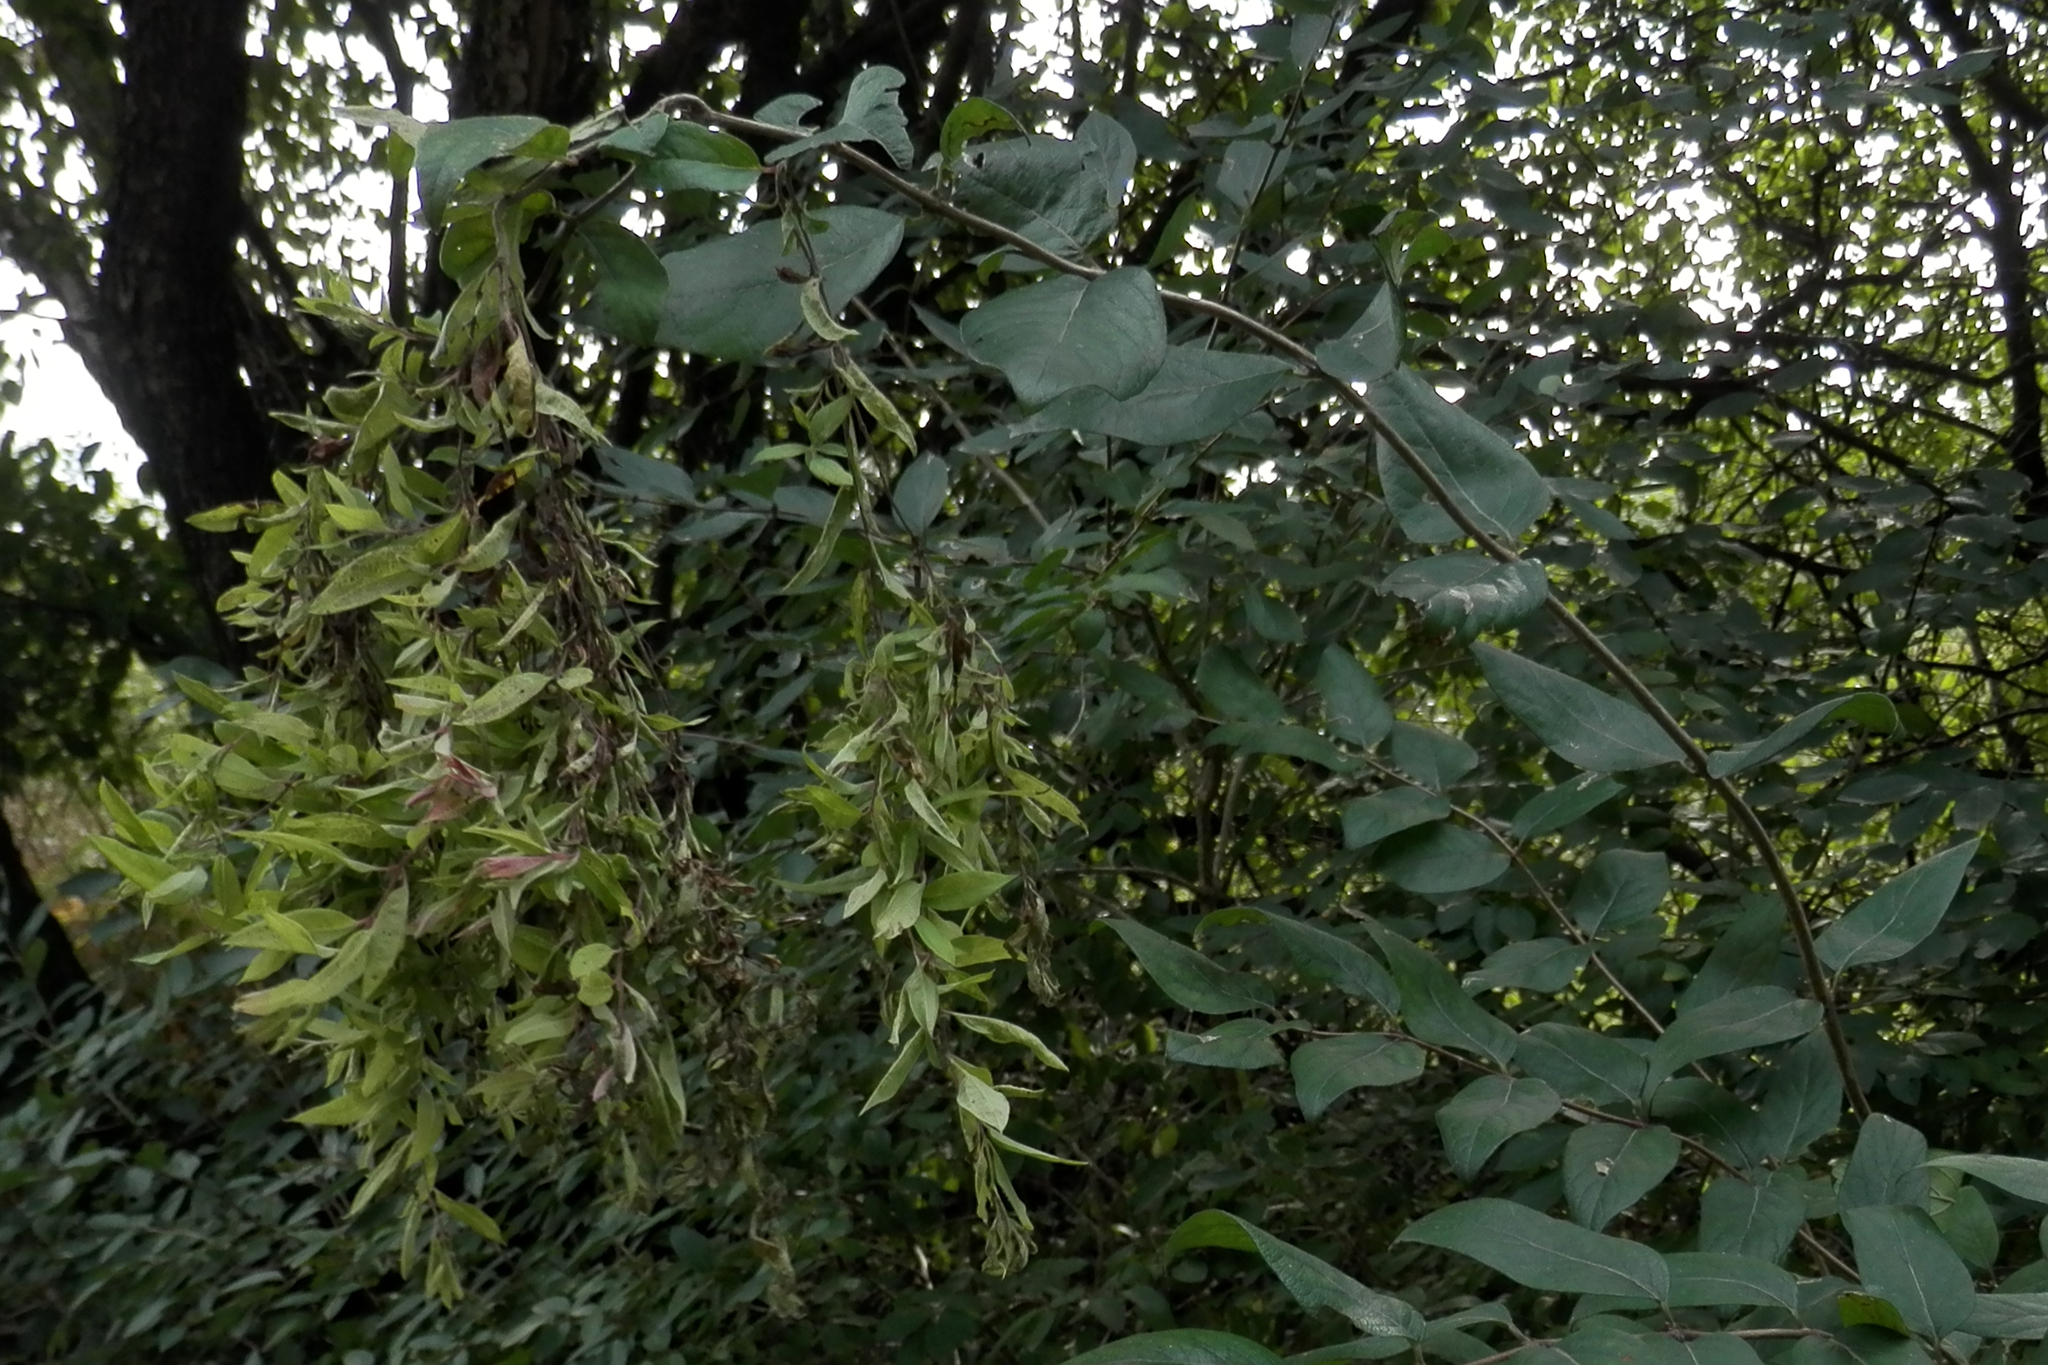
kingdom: Plantae
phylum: Tracheophyta
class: Magnoliopsida
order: Dipsacales
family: Caprifoliaceae
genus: Lonicera
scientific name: Lonicera maackii
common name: Amur honeysuckle
